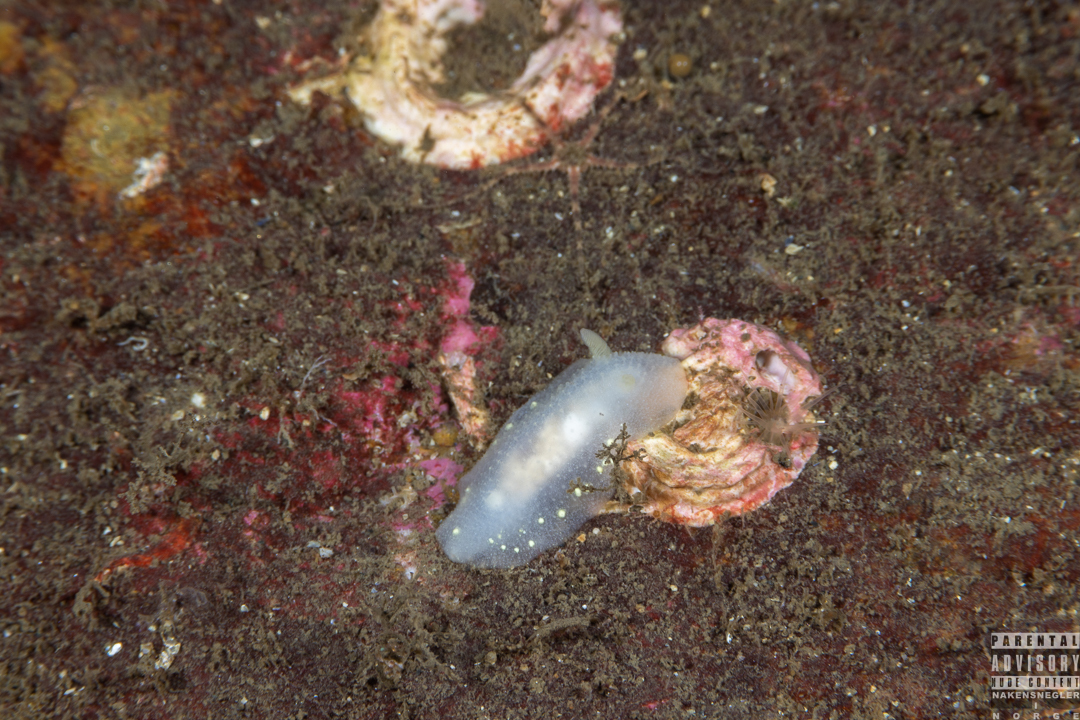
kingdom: Animalia
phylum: Mollusca
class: Gastropoda
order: Nudibranchia
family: Cadlinidae
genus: Cadlina
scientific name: Cadlina laevis
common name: White atlantic cadlina
